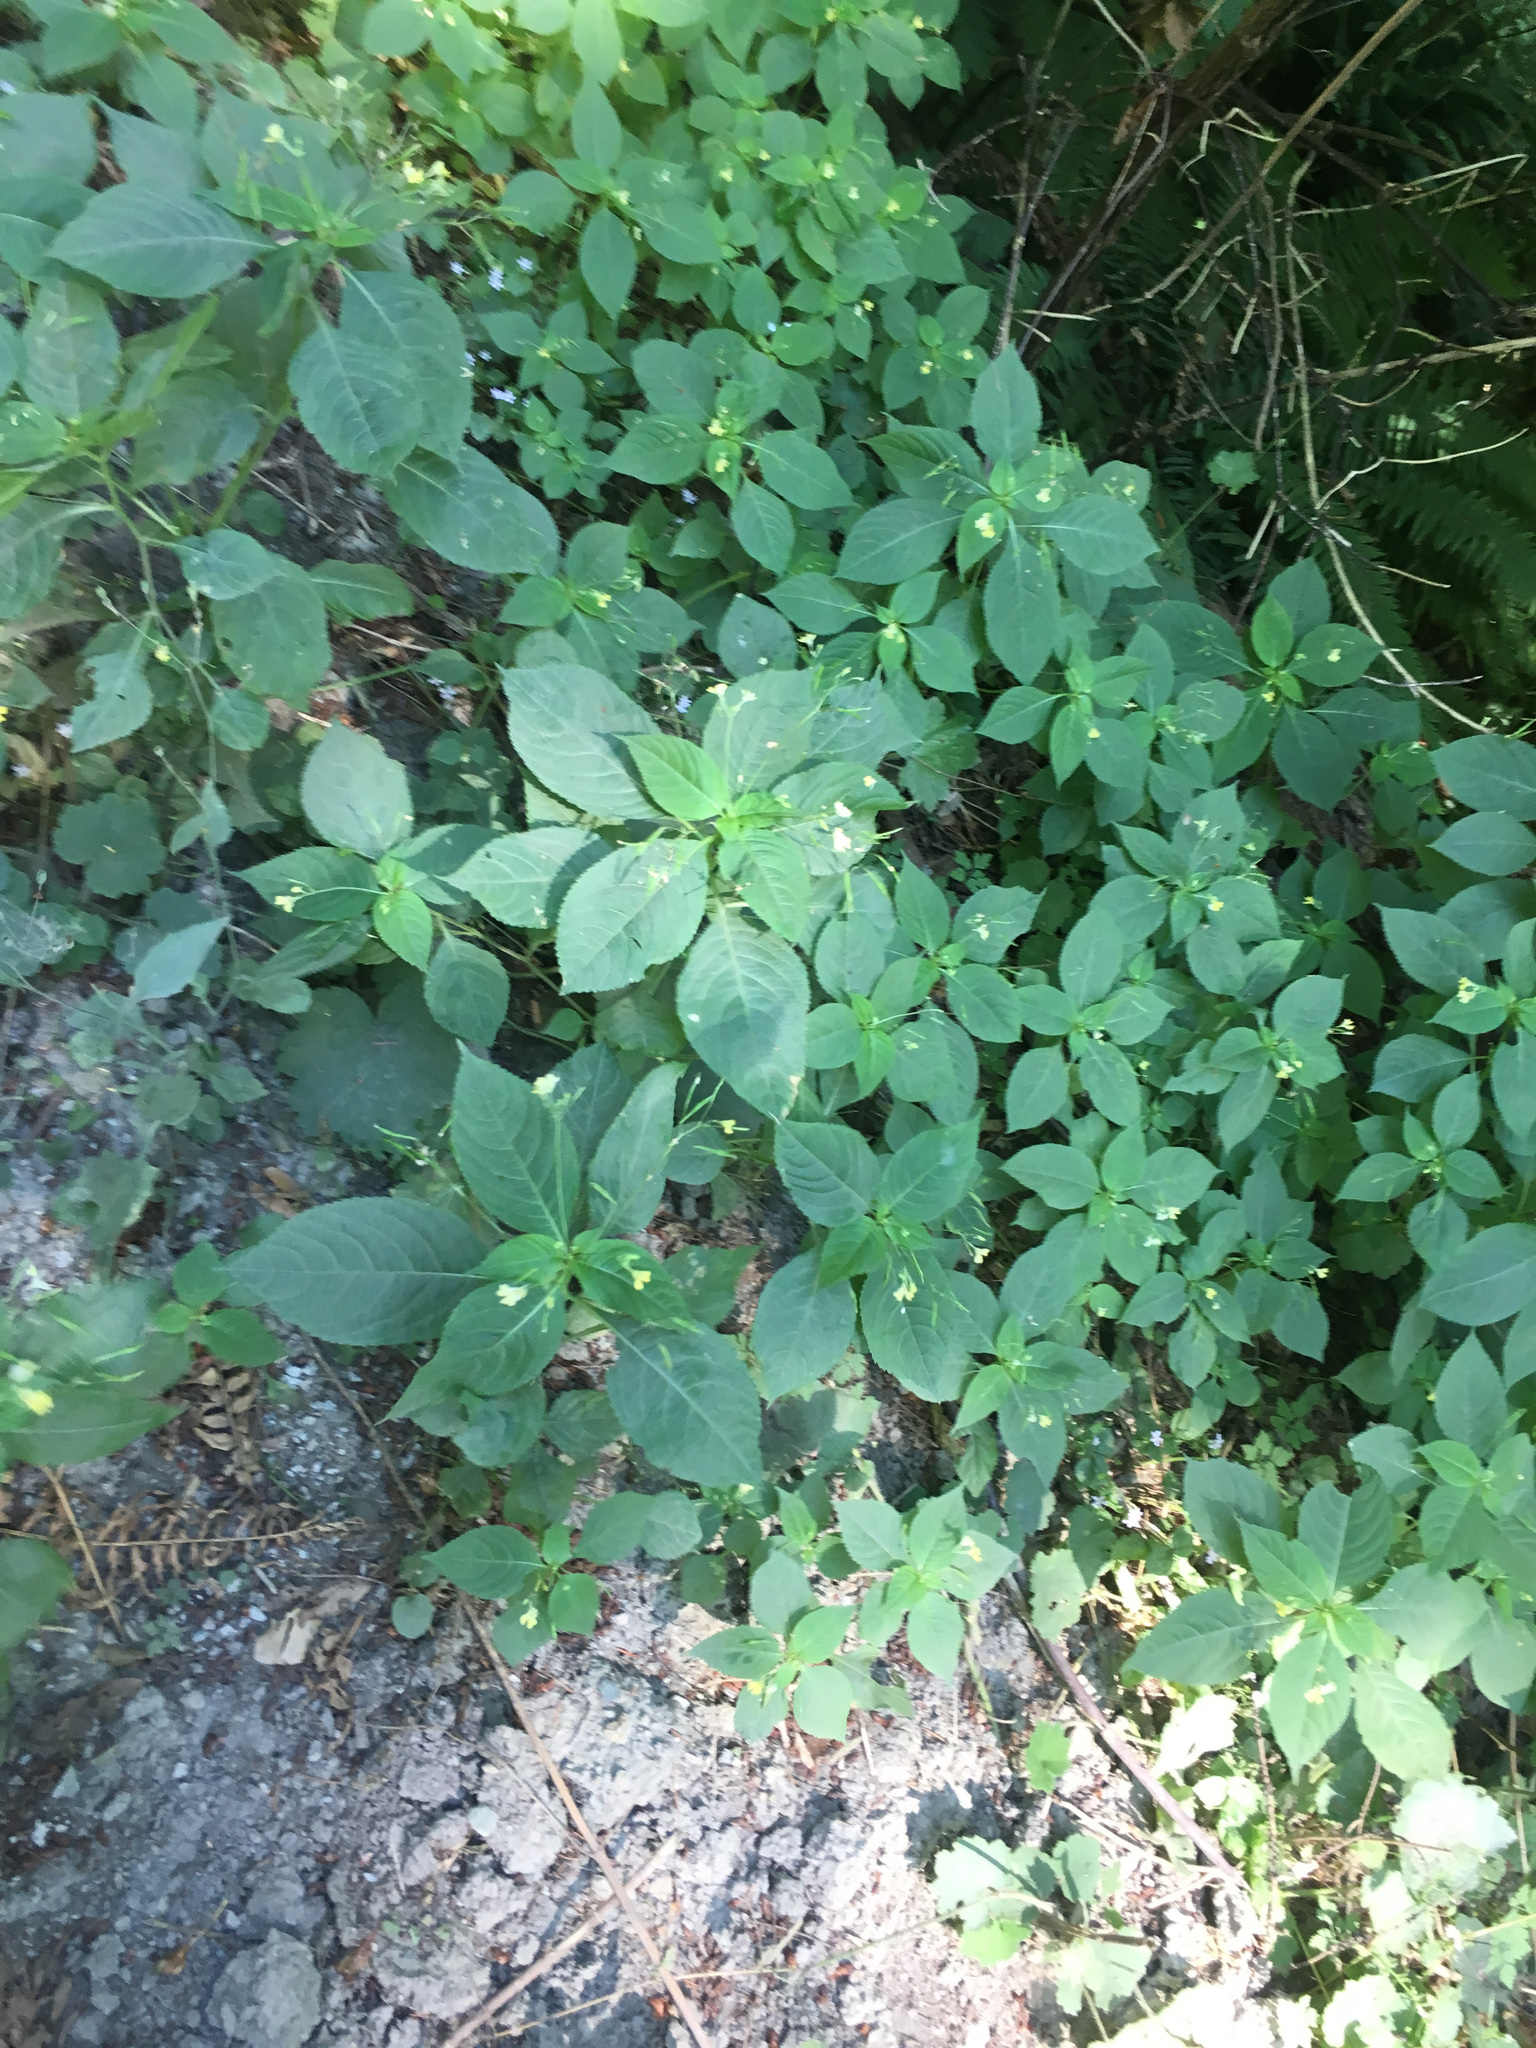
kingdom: Plantae
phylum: Tracheophyta
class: Magnoliopsida
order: Ericales
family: Balsaminaceae
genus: Impatiens
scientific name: Impatiens parviflora
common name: Small balsam
